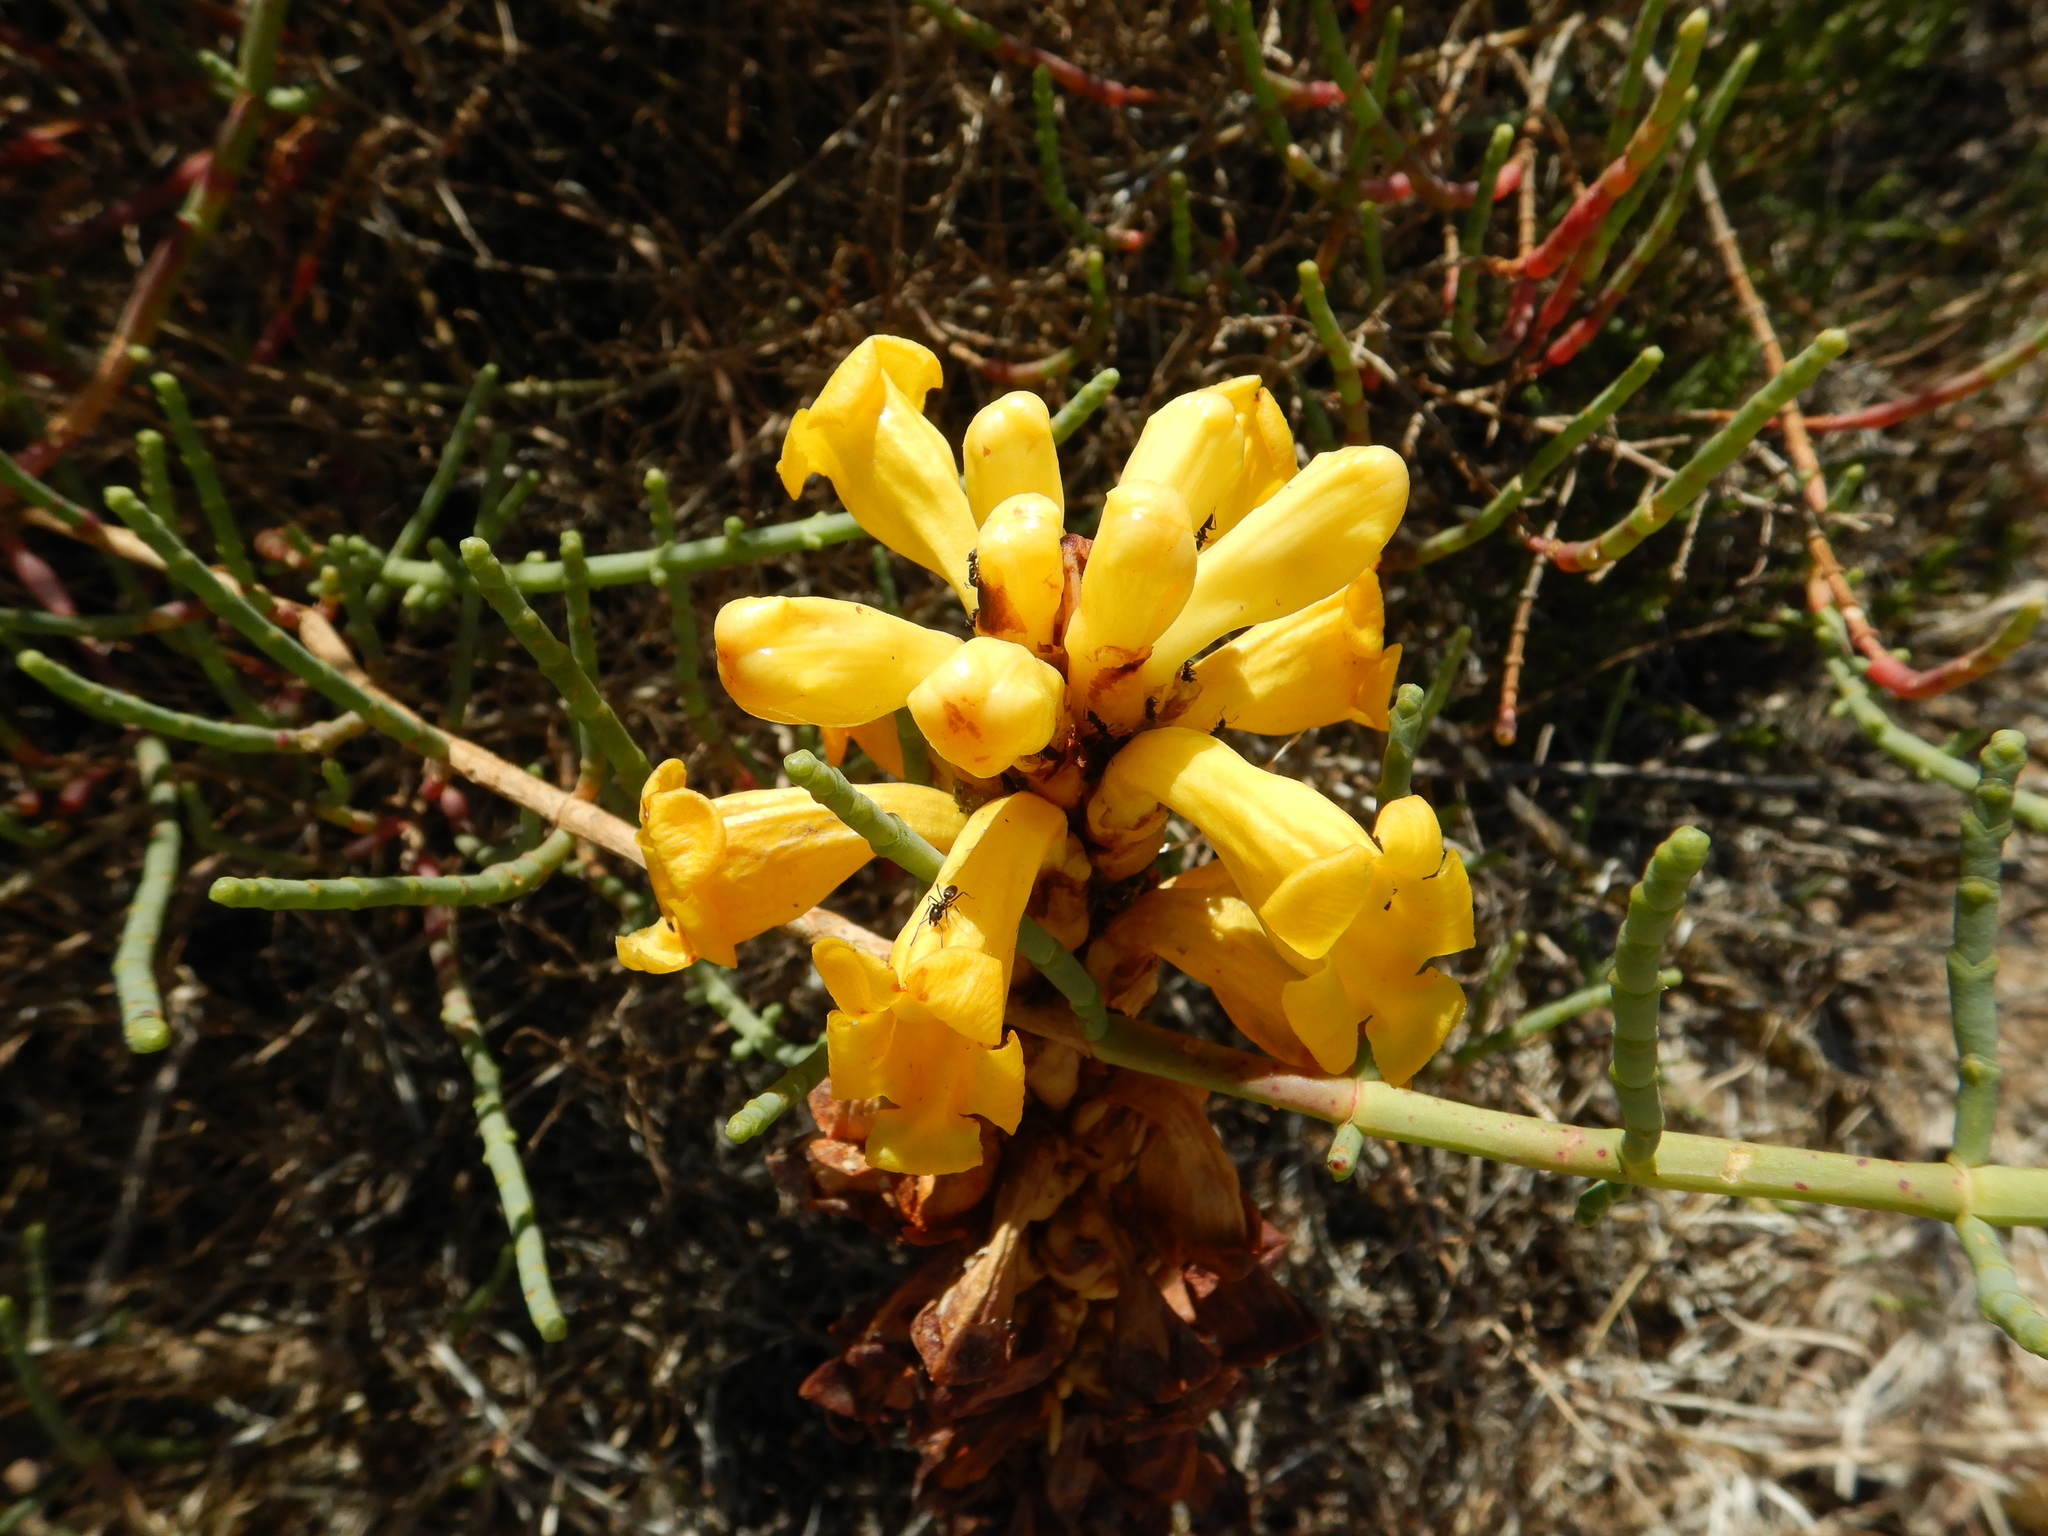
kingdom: Plantae
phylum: Tracheophyta
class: Magnoliopsida
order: Lamiales
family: Orobanchaceae
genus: Cistanche
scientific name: Cistanche phelypaea
